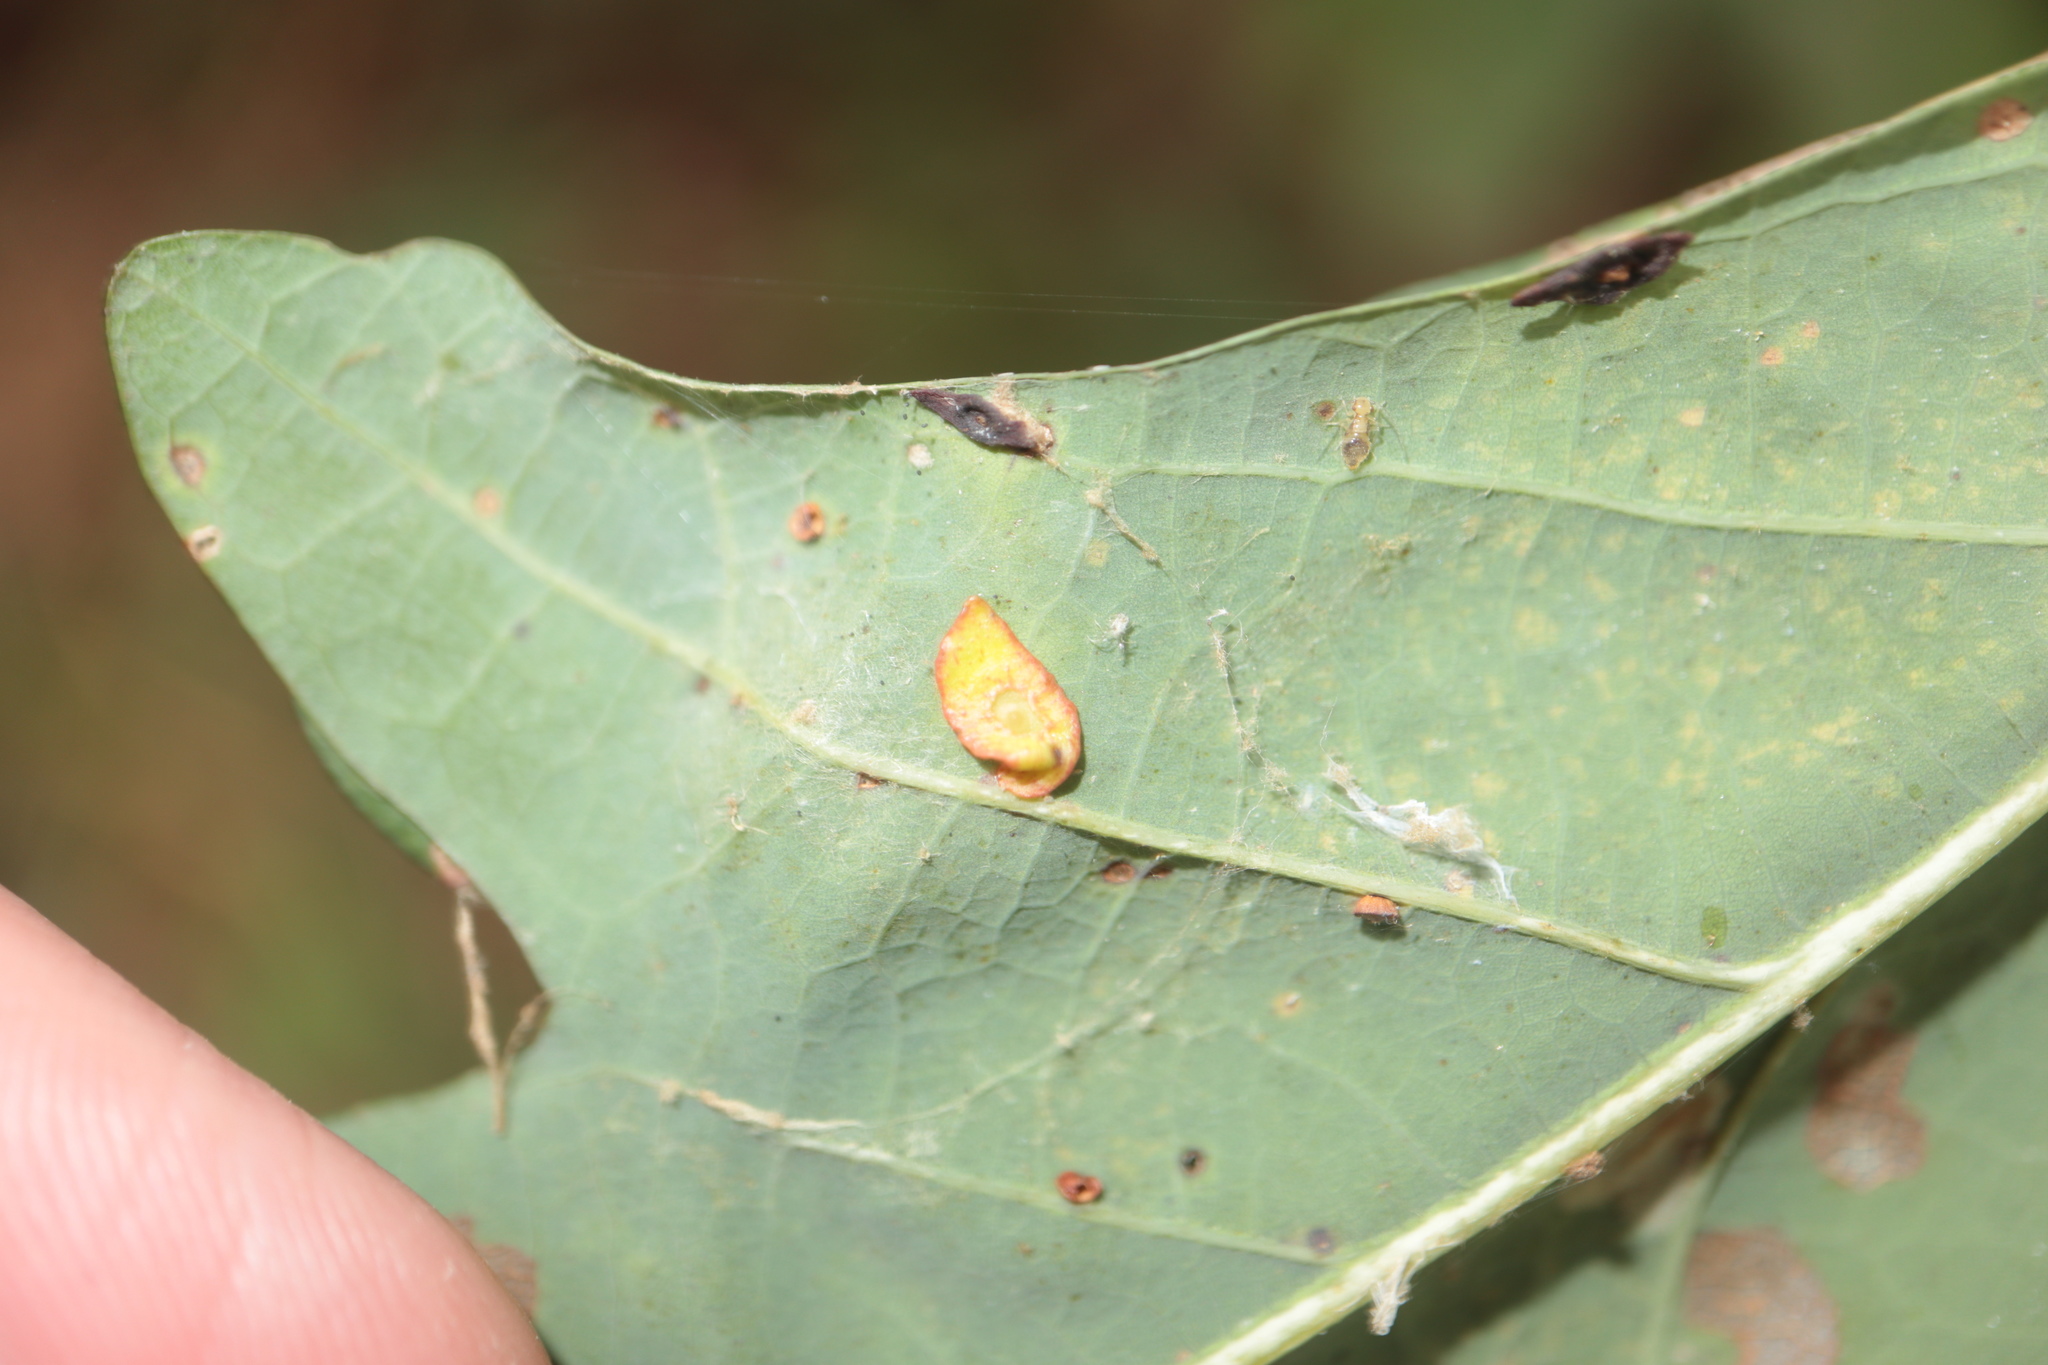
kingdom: Animalia
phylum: Arthropoda
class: Insecta
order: Hymenoptera
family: Cynipidae
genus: Phylloteras
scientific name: Phylloteras
